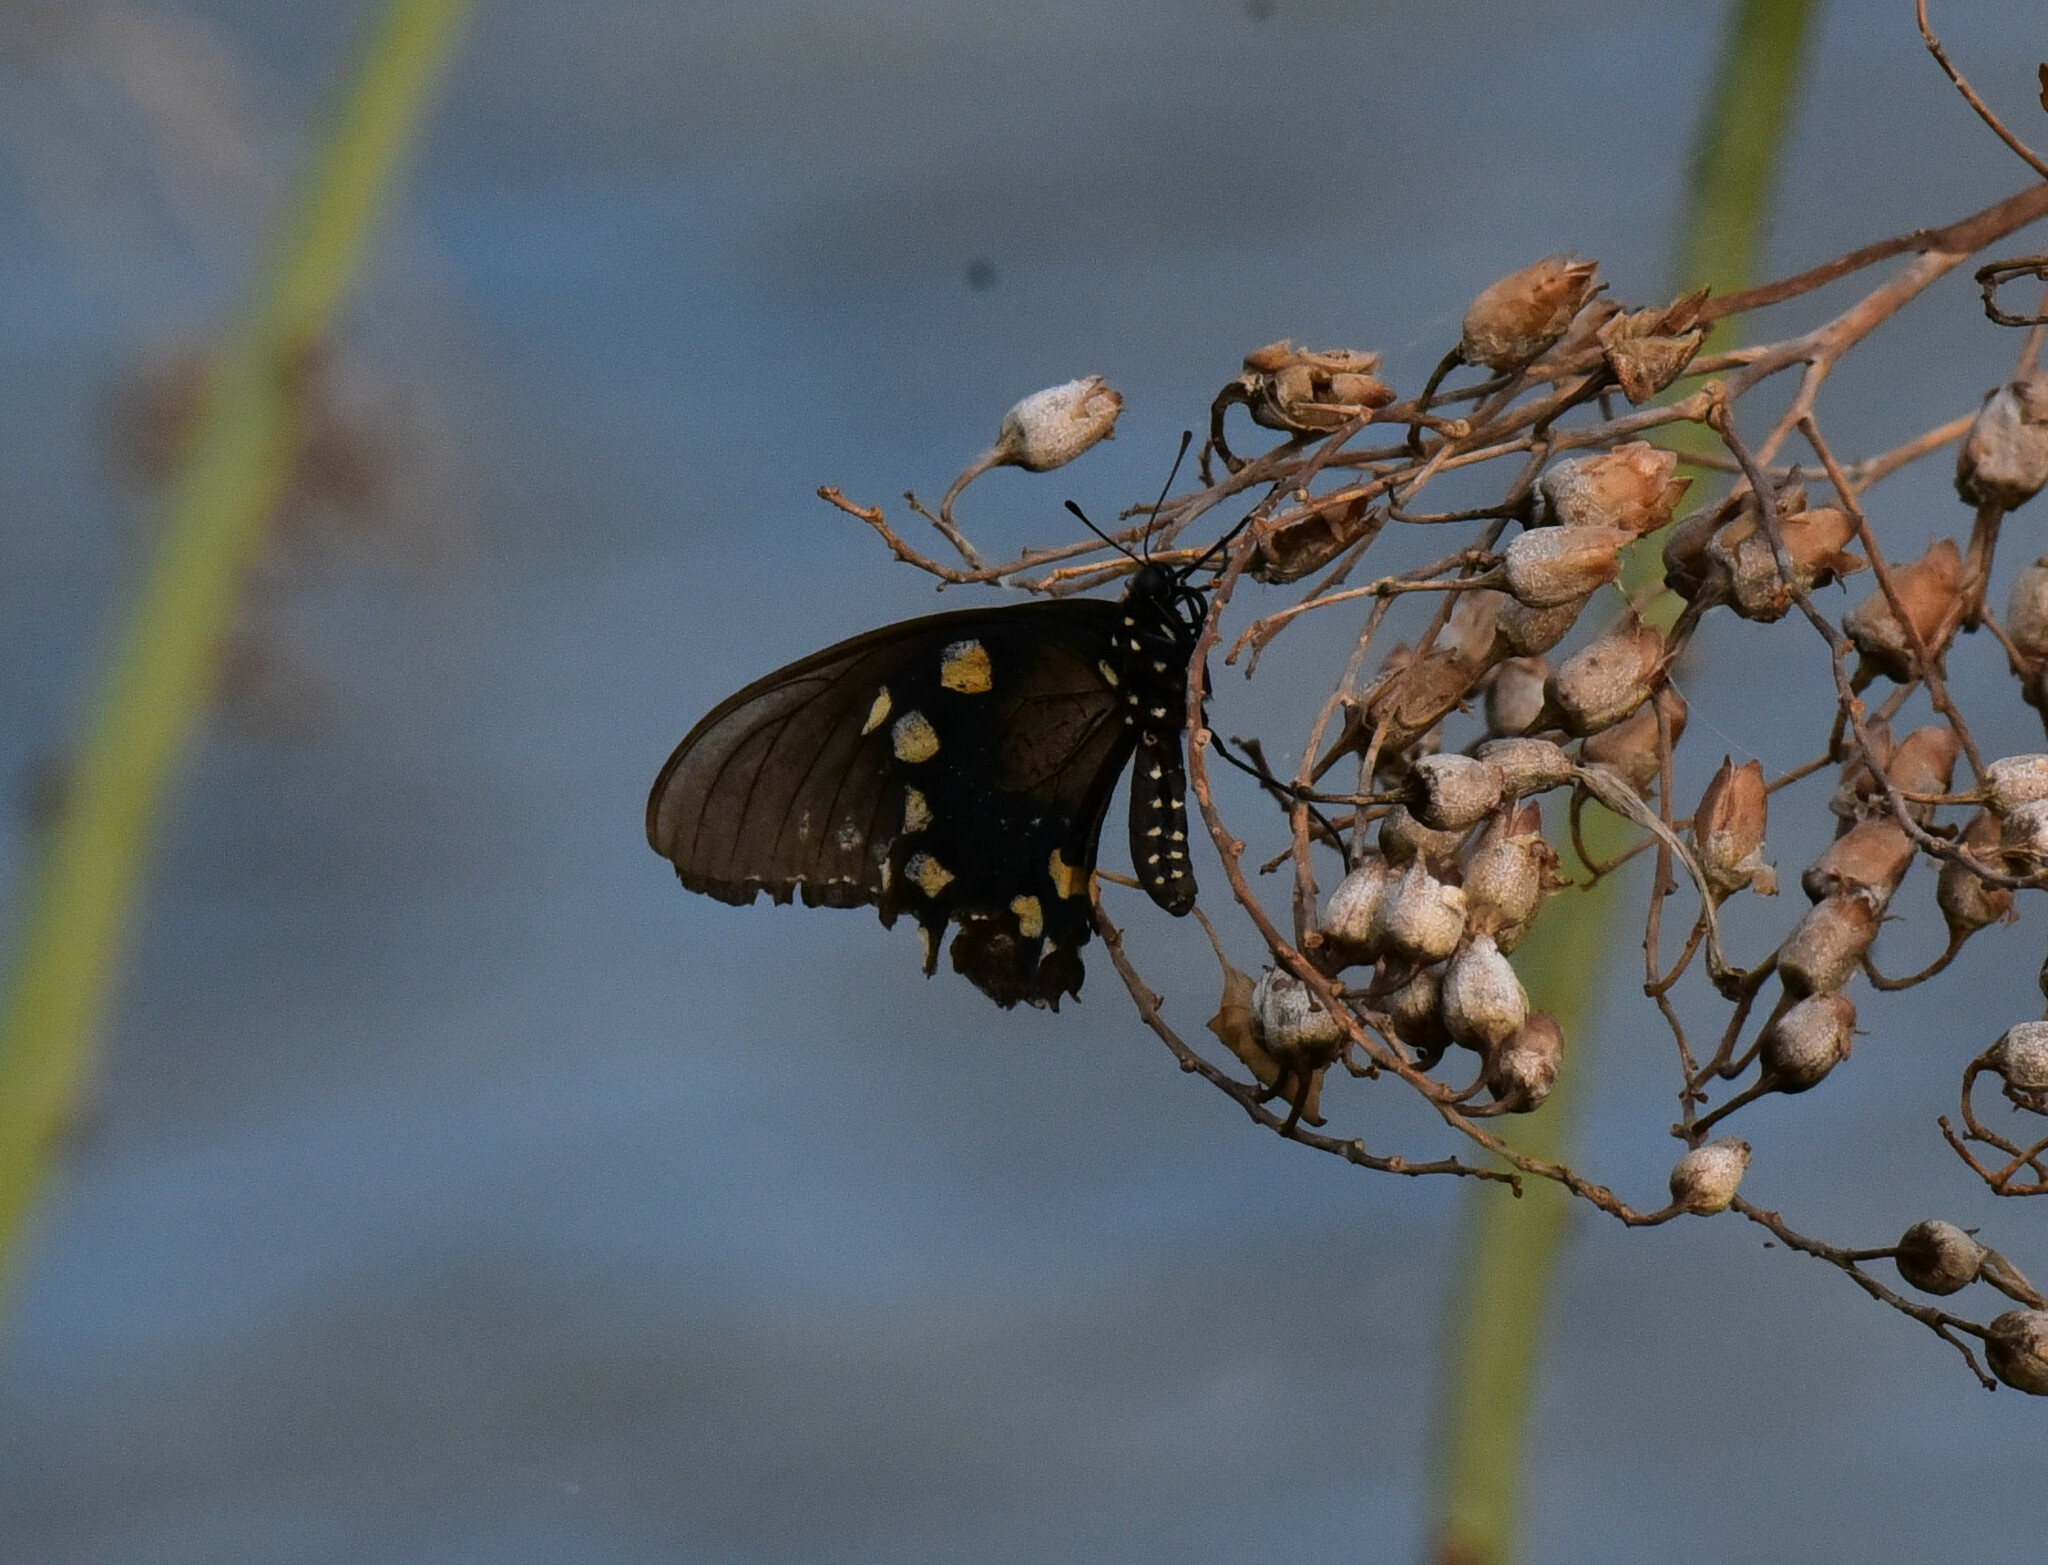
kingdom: Animalia
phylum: Arthropoda
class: Insecta
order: Lepidoptera
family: Papilionidae
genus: Battus
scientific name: Battus philenor
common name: Pipevine swallowtail
